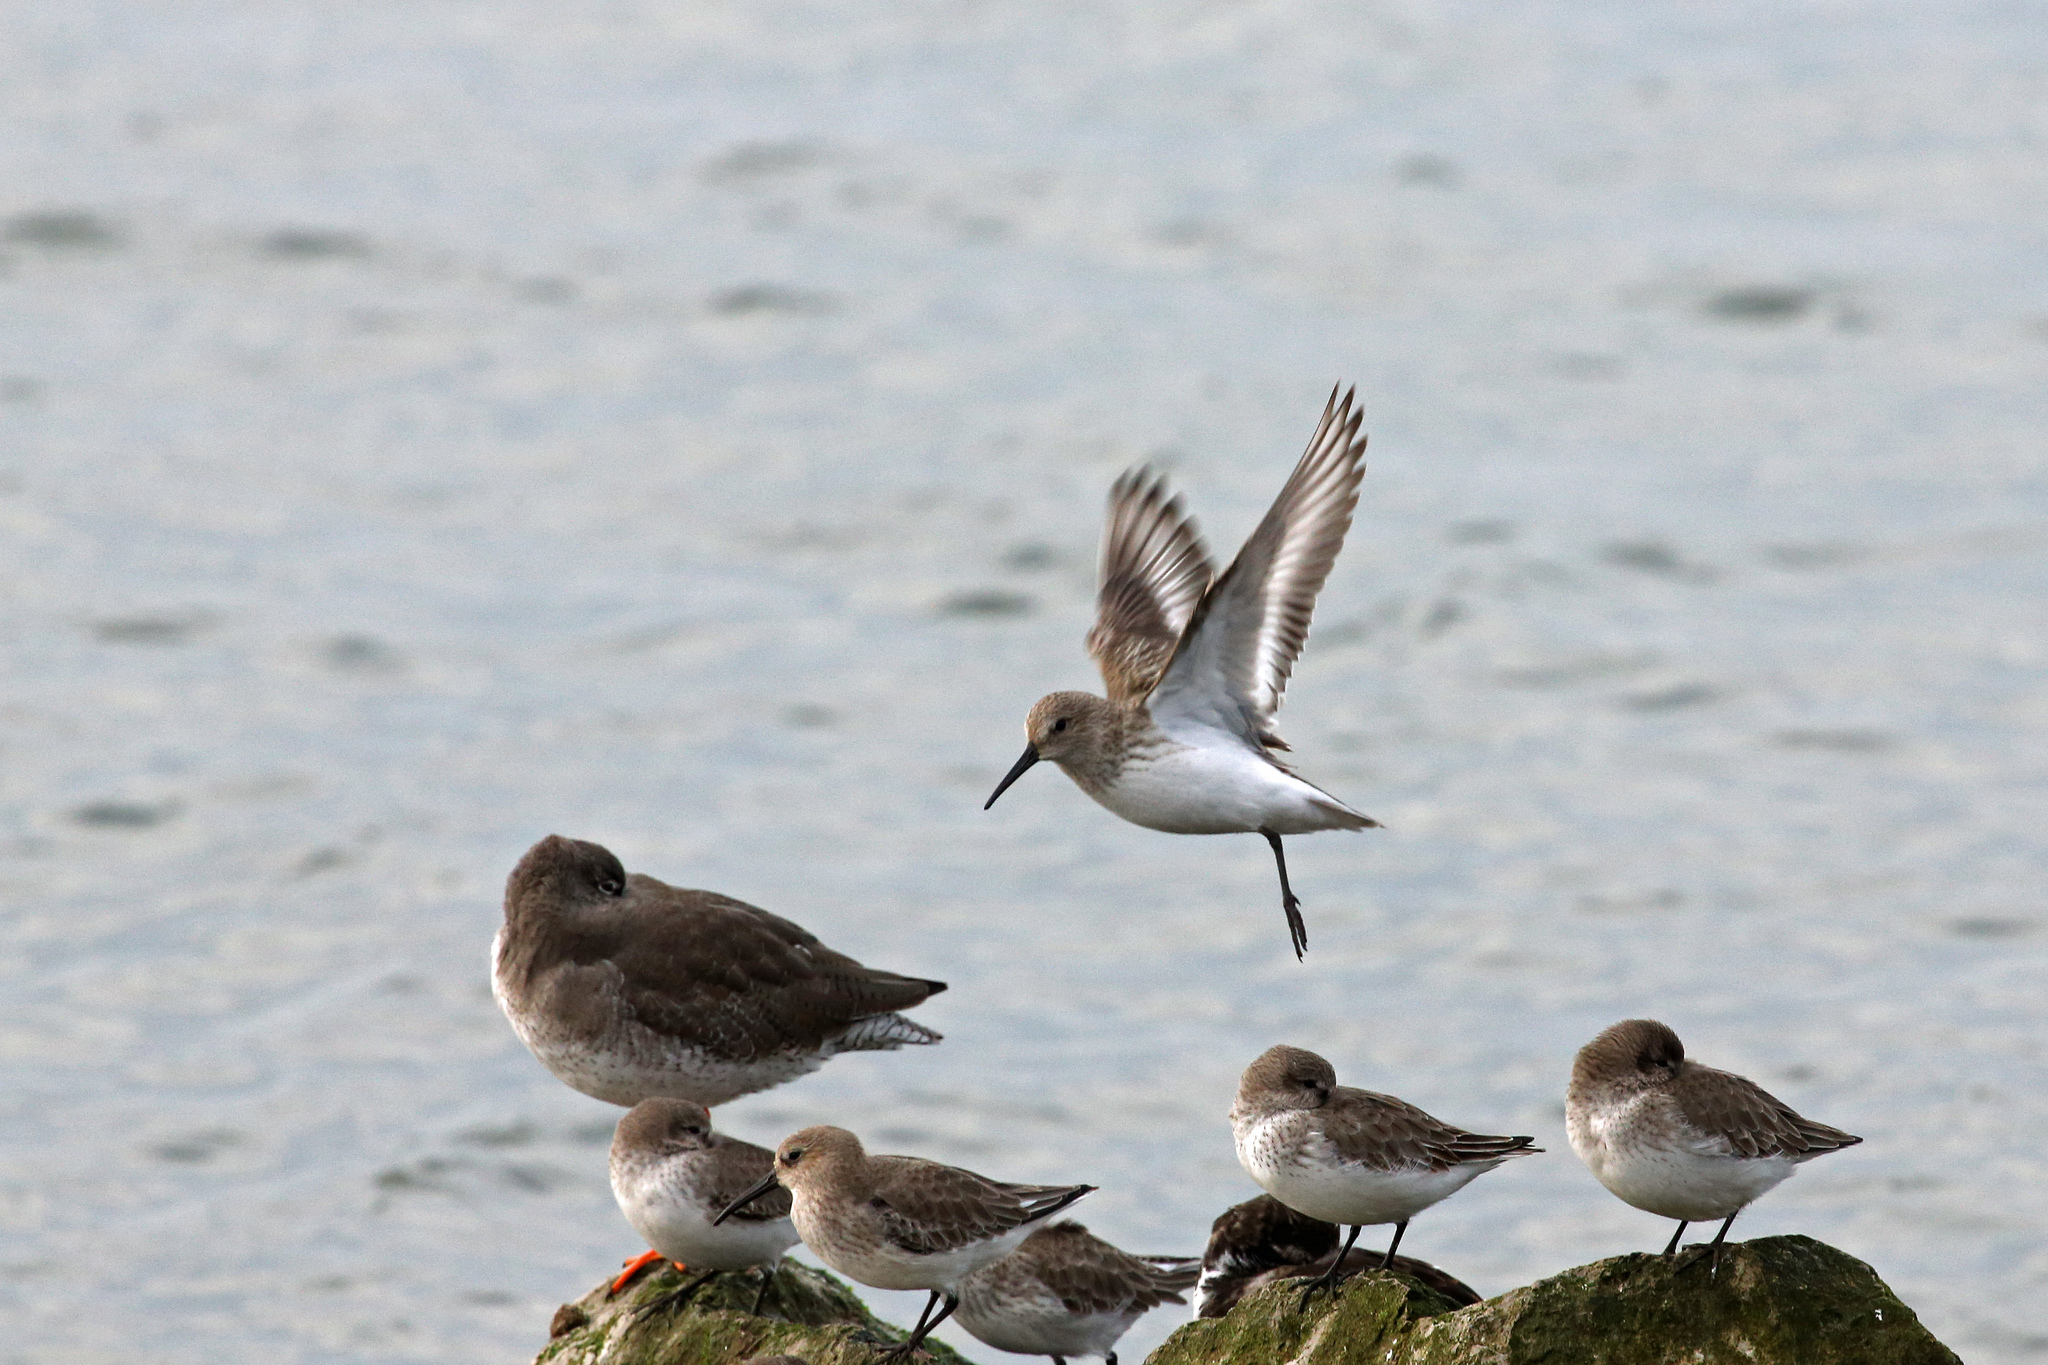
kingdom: Animalia
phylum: Chordata
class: Aves
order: Charadriiformes
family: Scolopacidae
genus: Calidris
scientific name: Calidris alpina
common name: Dunlin
